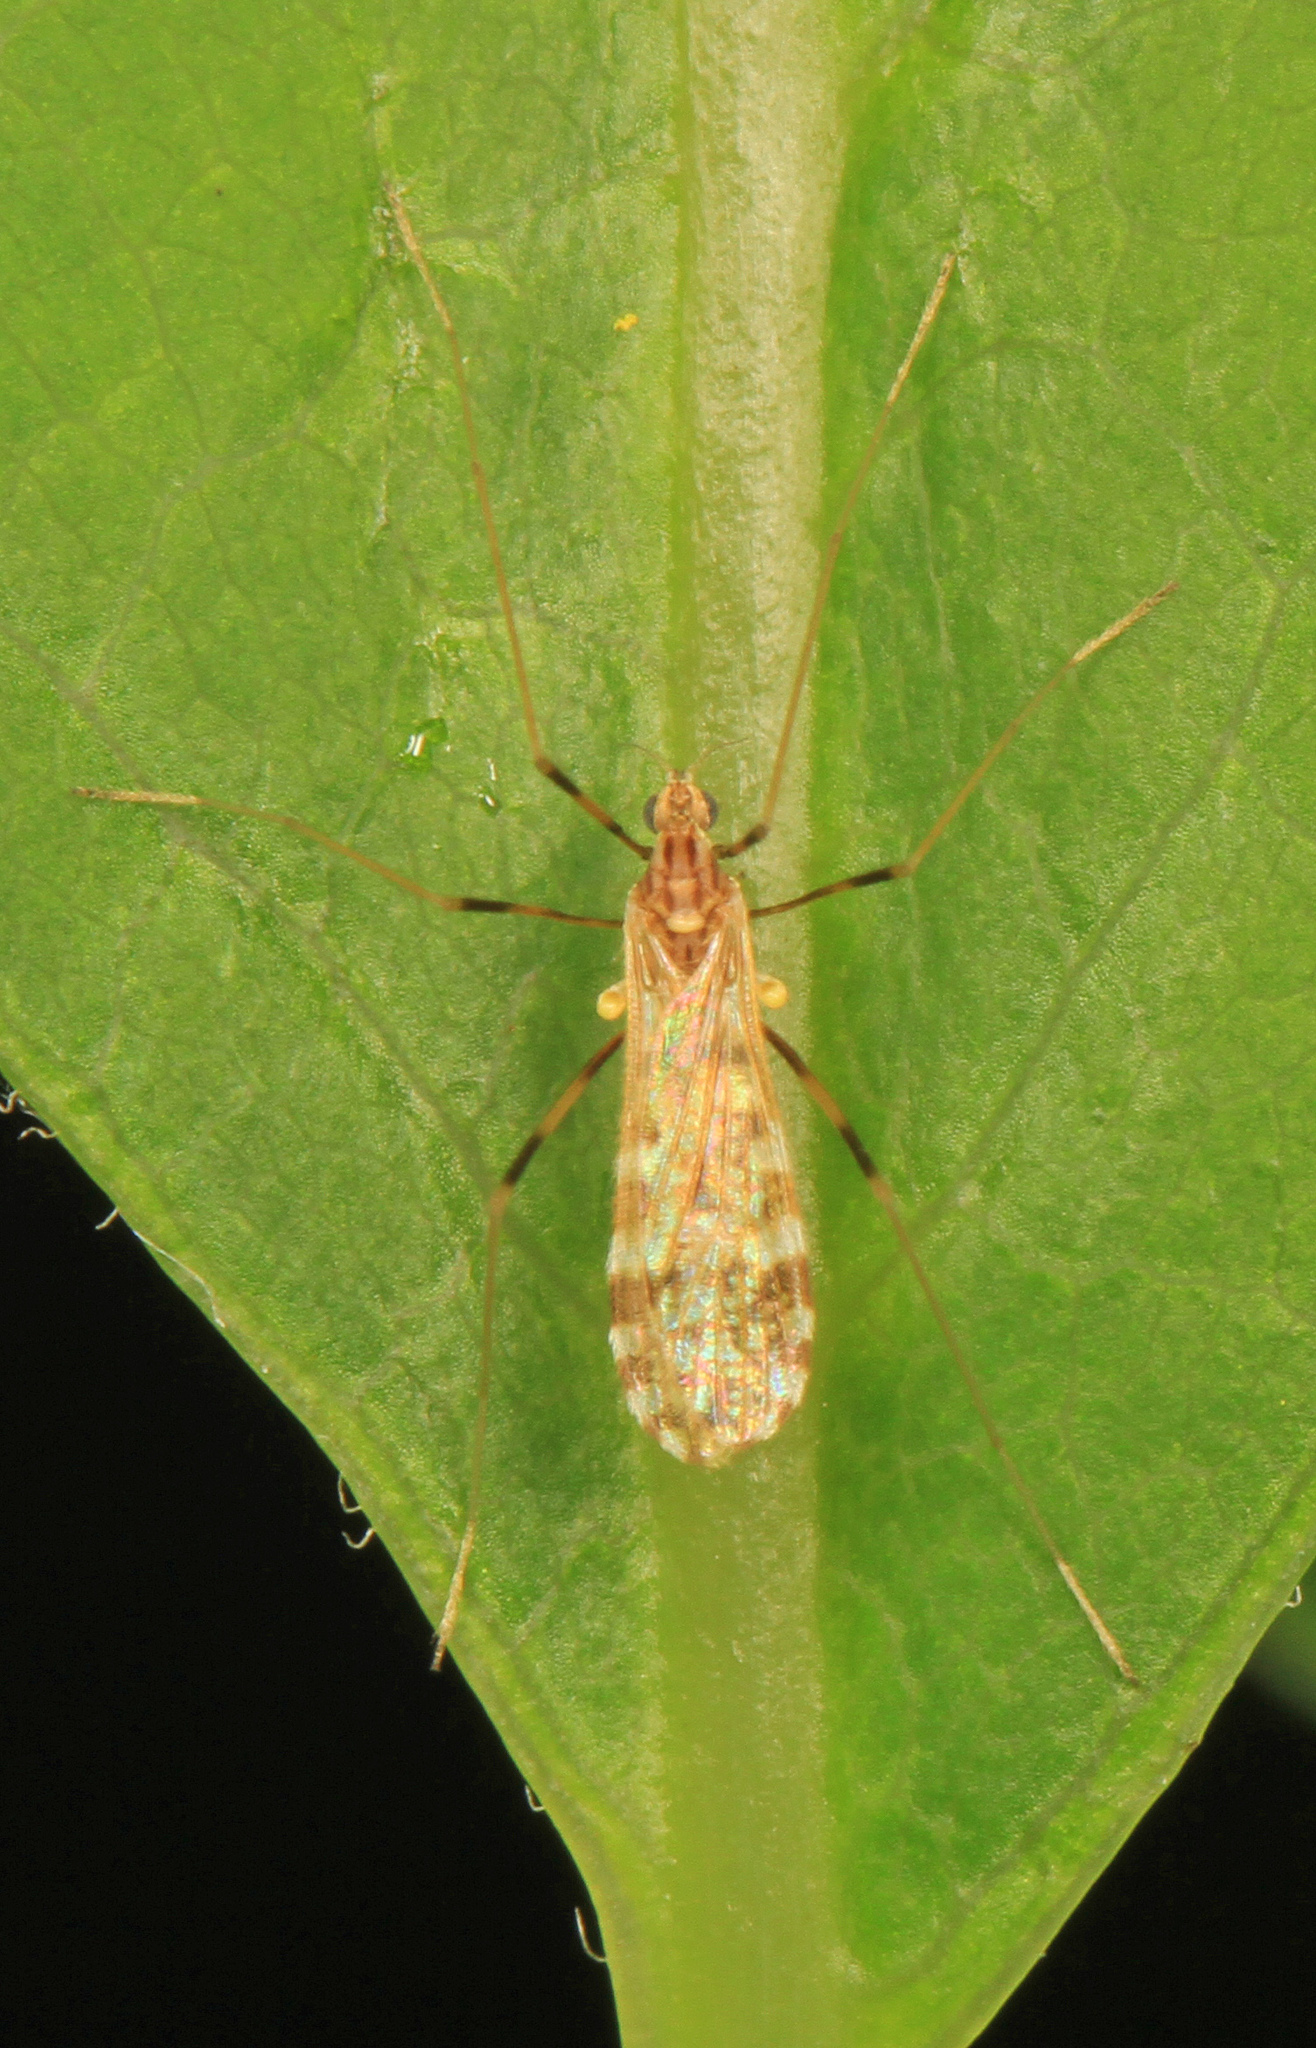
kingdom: Animalia
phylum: Arthropoda
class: Insecta
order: Diptera
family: Limoniidae
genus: Erioptera
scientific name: Erioptera caliptera
